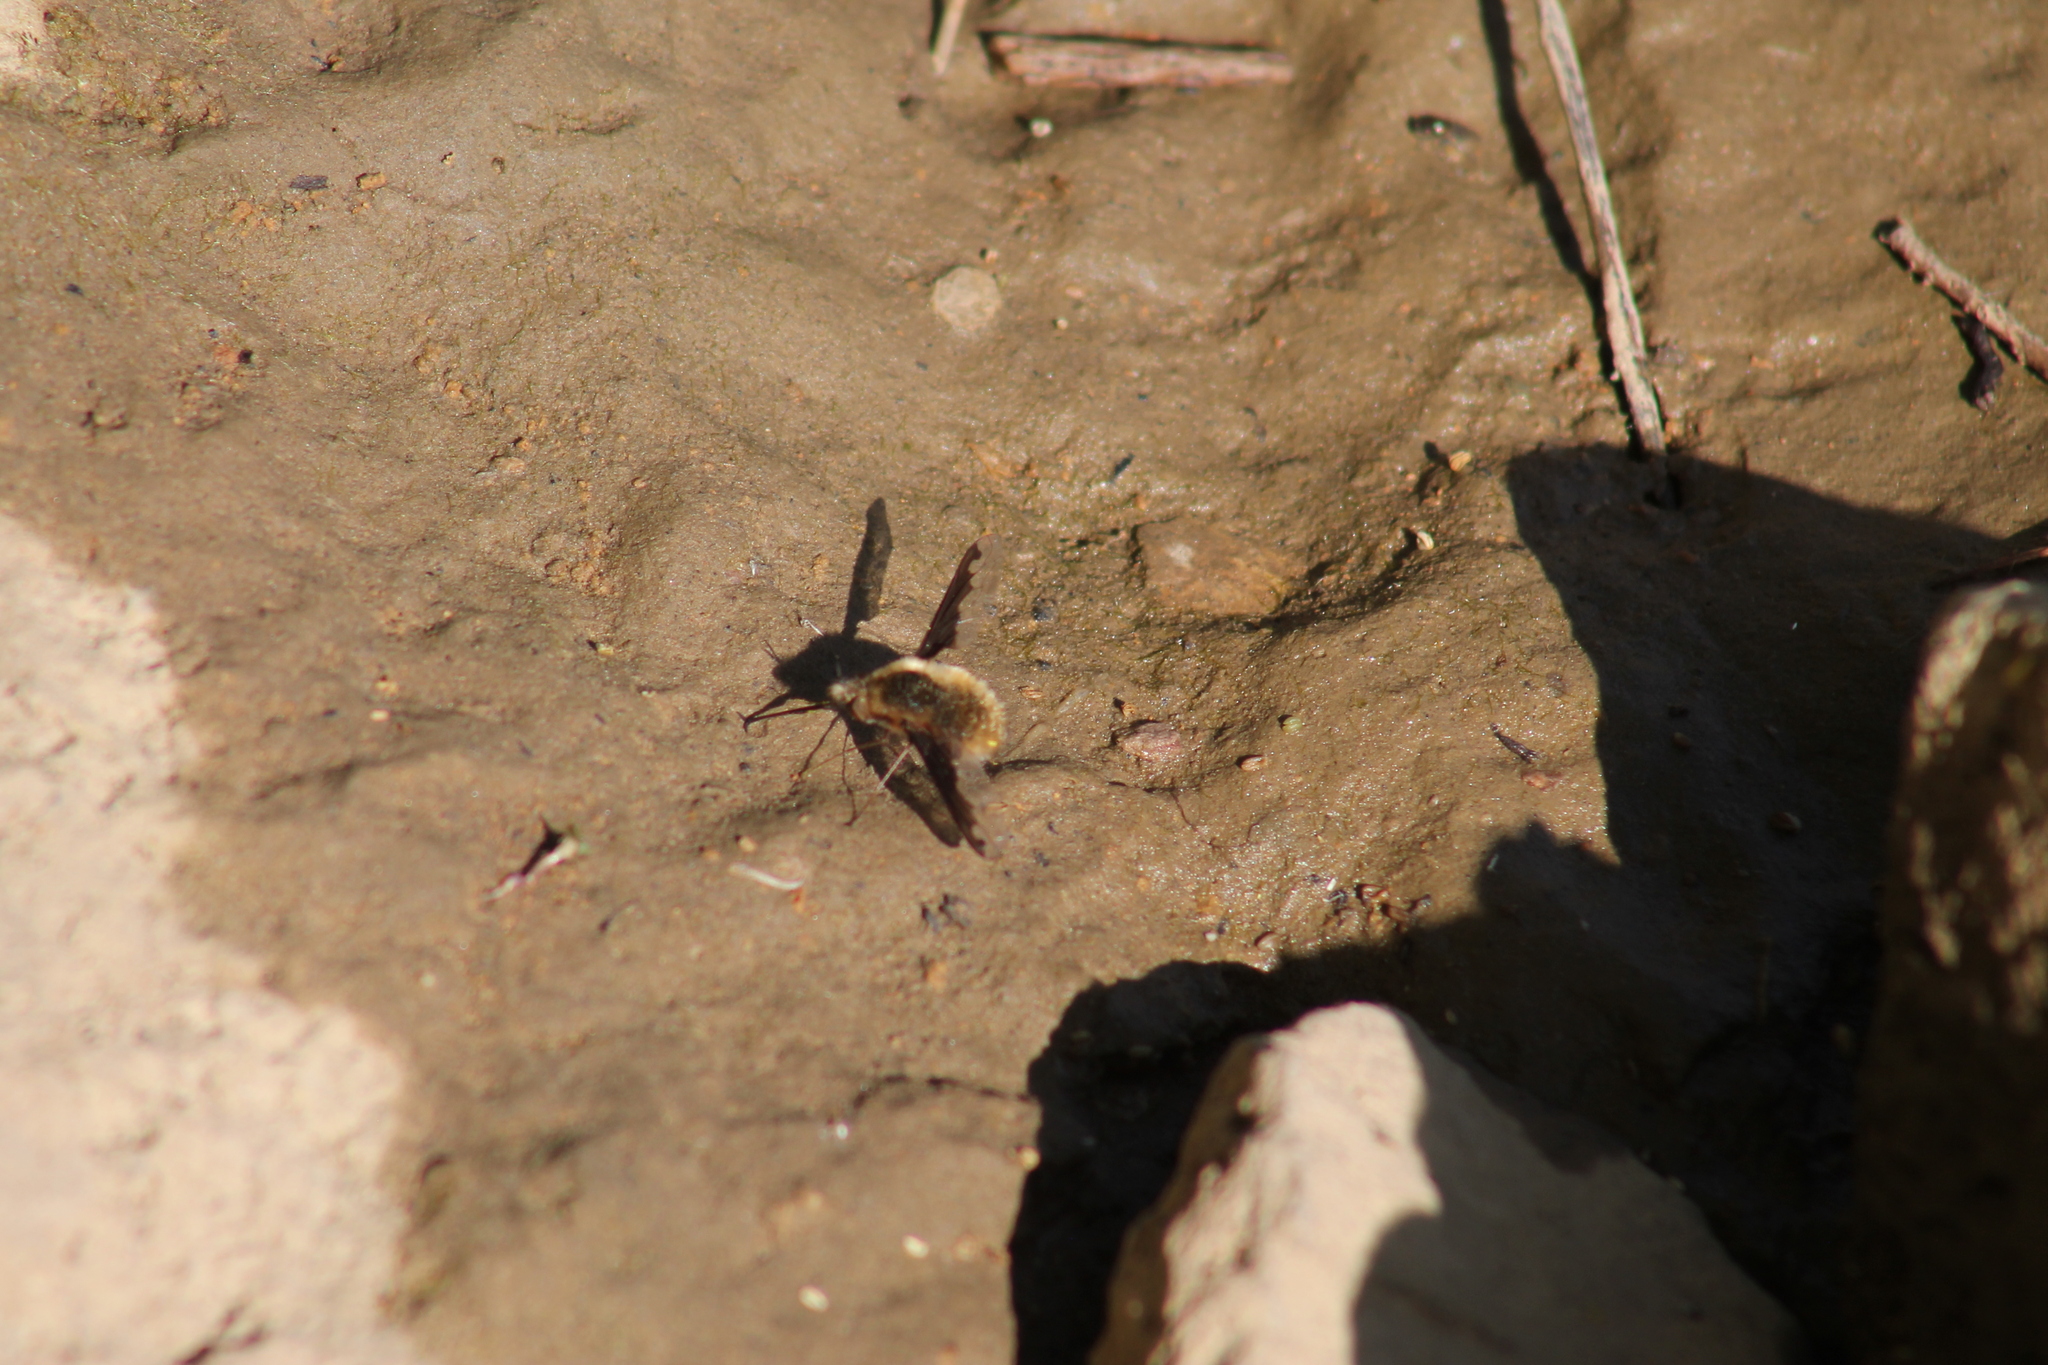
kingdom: Animalia
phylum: Arthropoda
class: Insecta
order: Diptera
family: Bombyliidae
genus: Bombylius
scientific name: Bombylius major
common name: Bee fly
